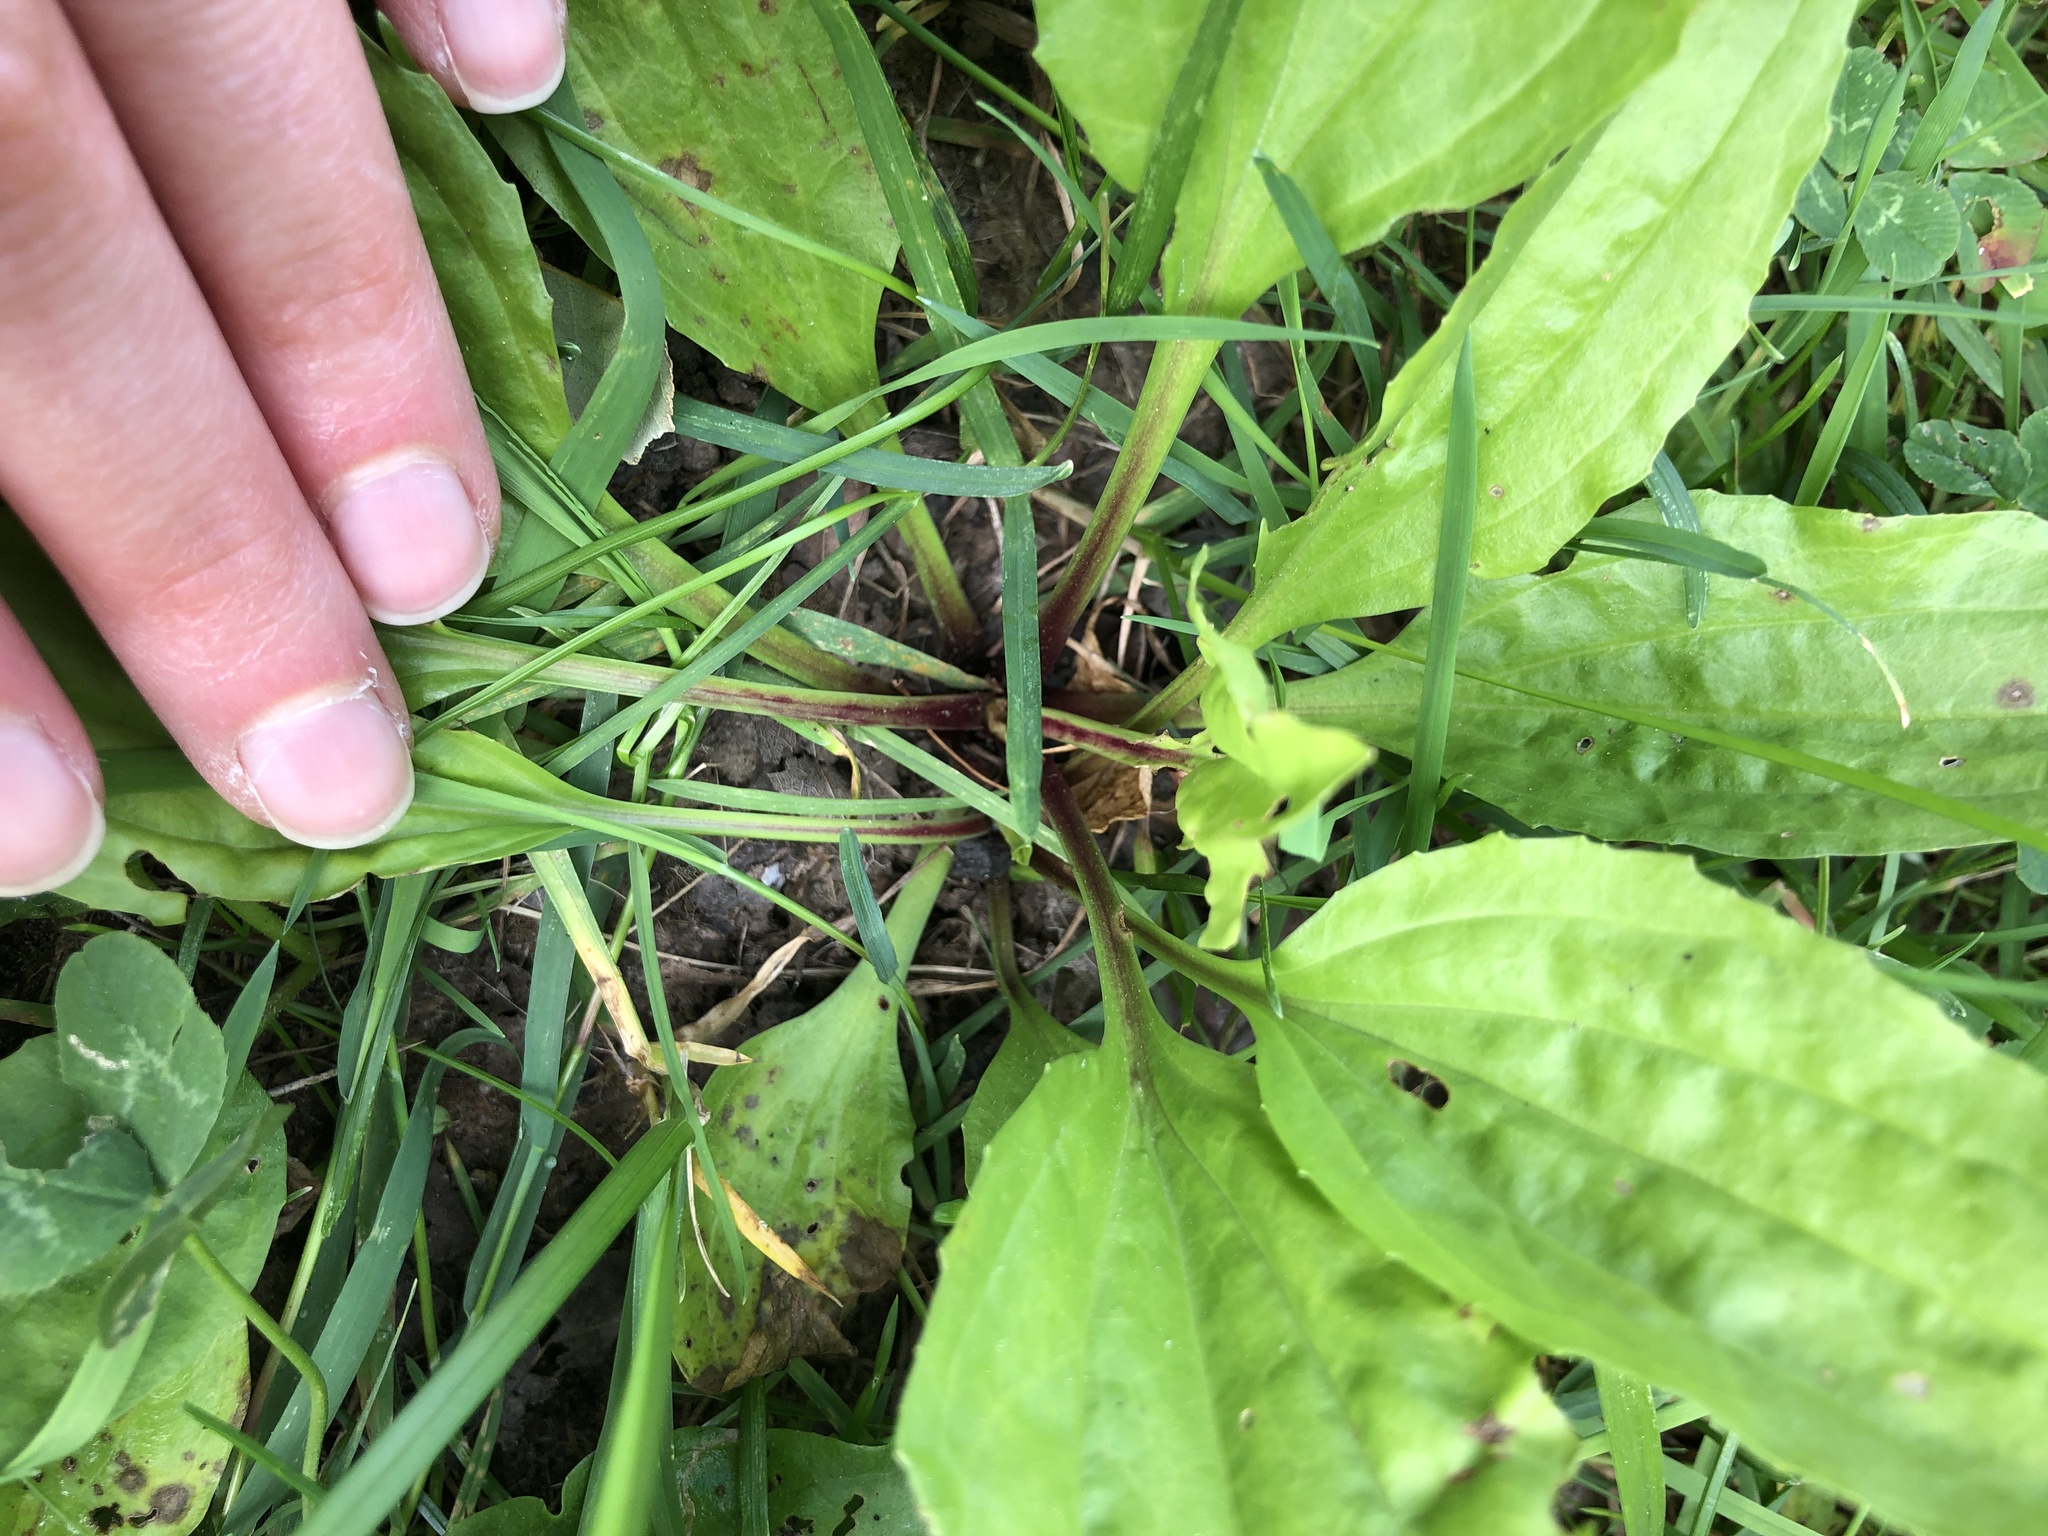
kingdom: Plantae
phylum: Tracheophyta
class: Magnoliopsida
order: Lamiales
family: Plantaginaceae
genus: Plantago
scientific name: Plantago rugelii
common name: American plantain
